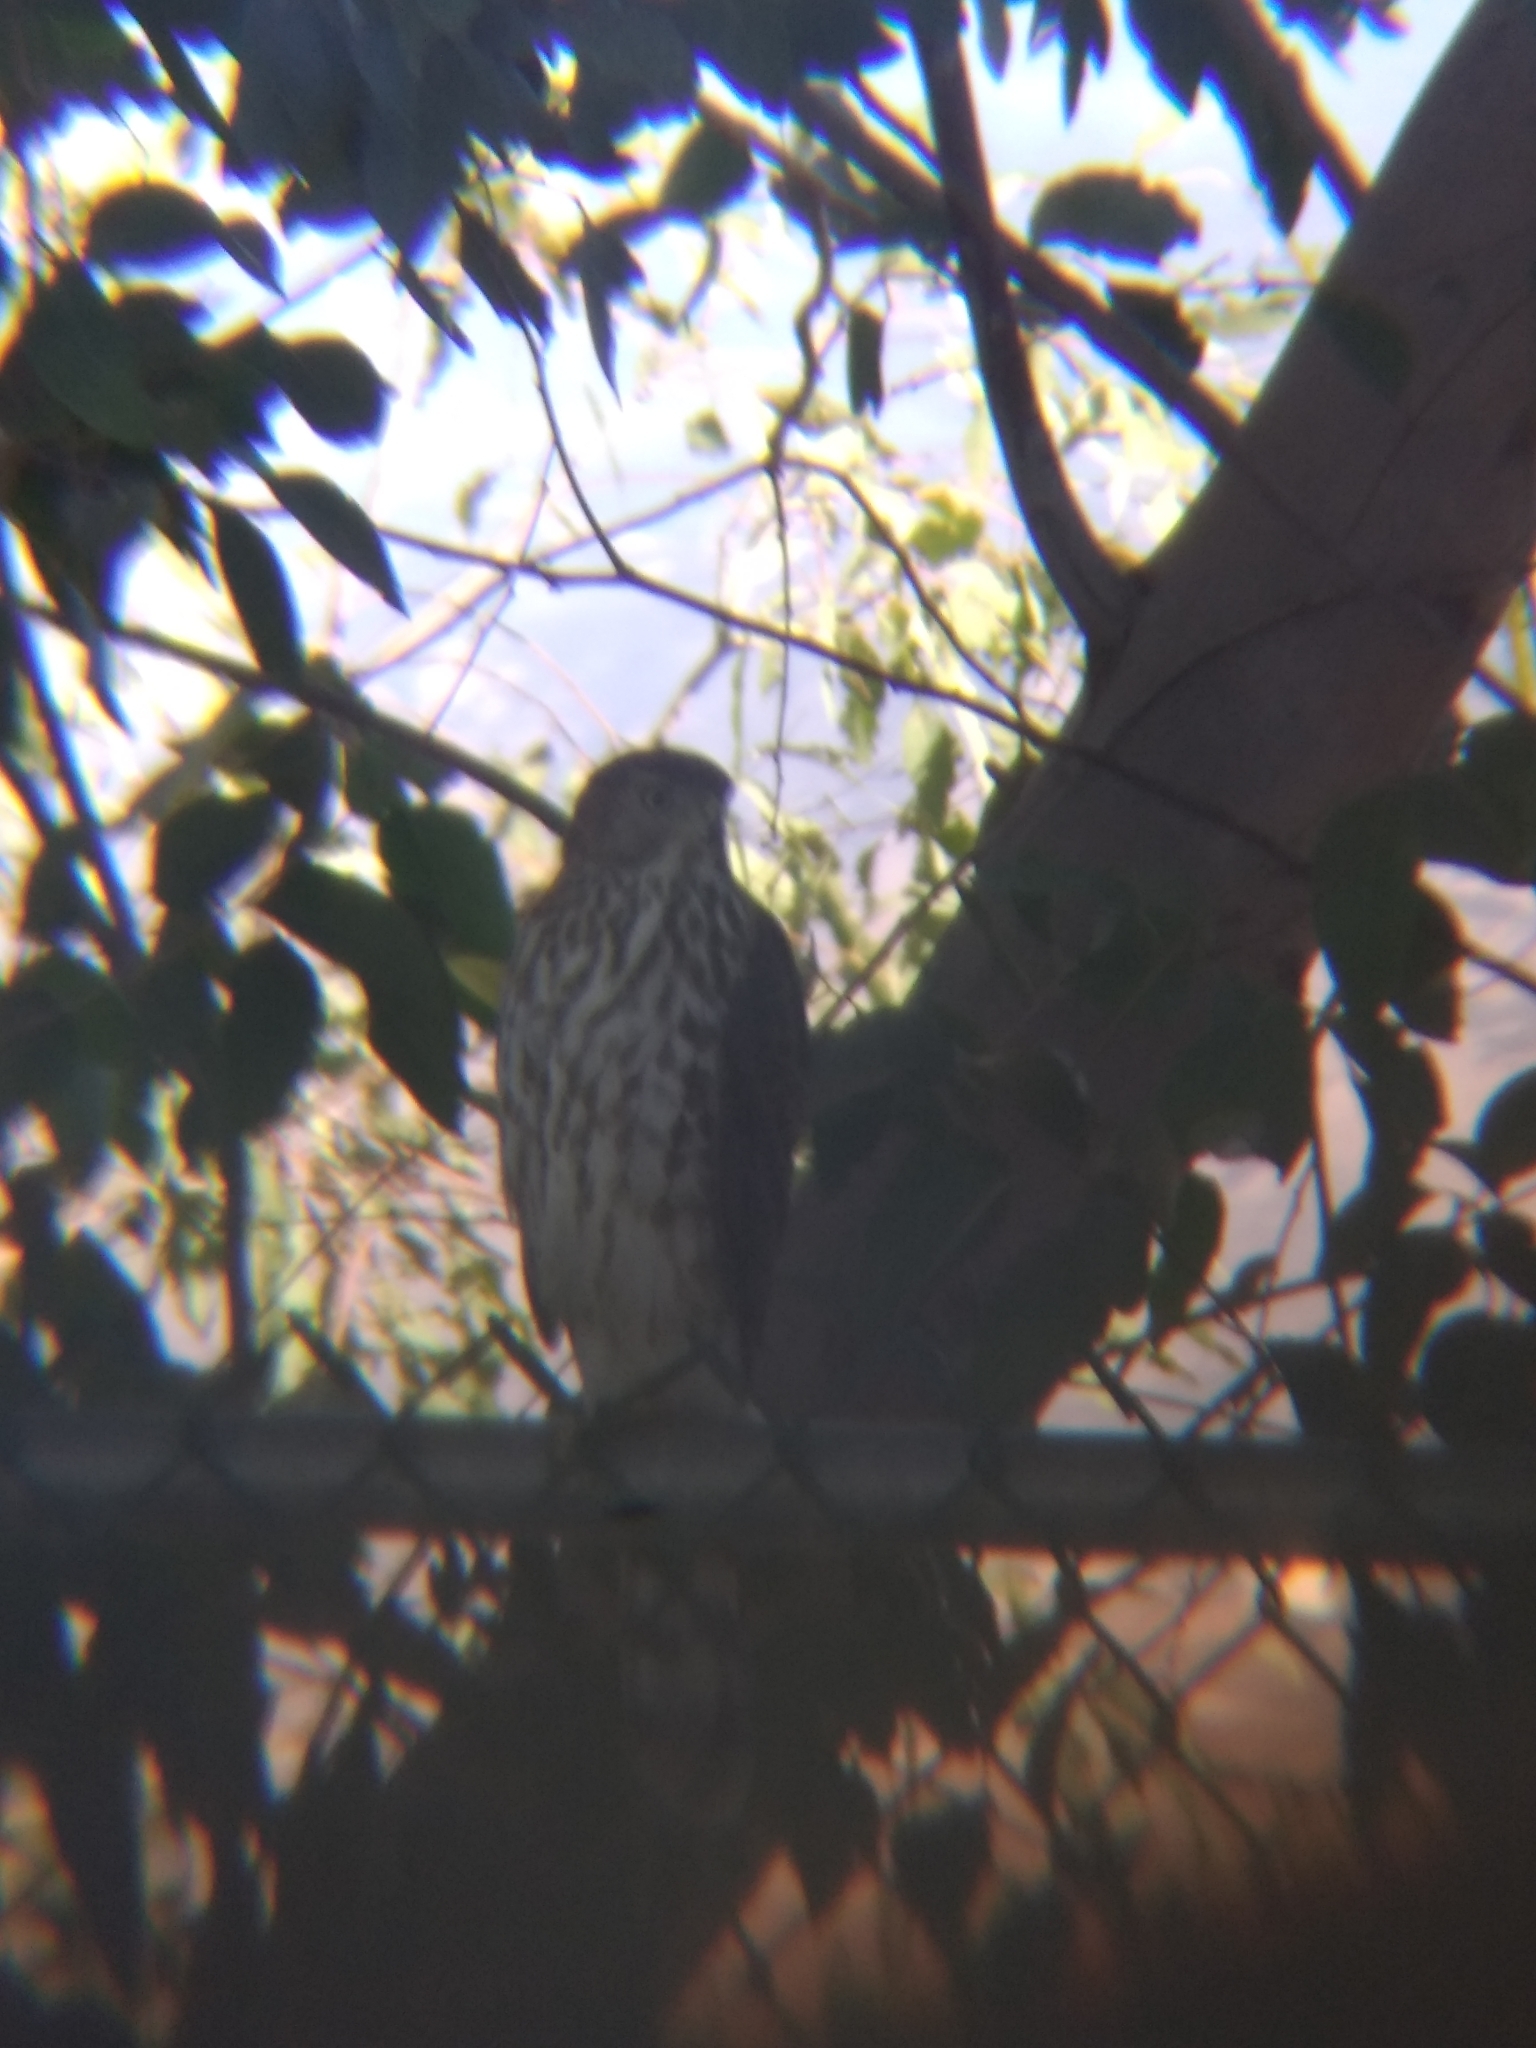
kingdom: Animalia
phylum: Chordata
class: Aves
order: Accipitriformes
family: Accipitridae
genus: Accipiter
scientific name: Accipiter cooperii
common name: Cooper's hawk
